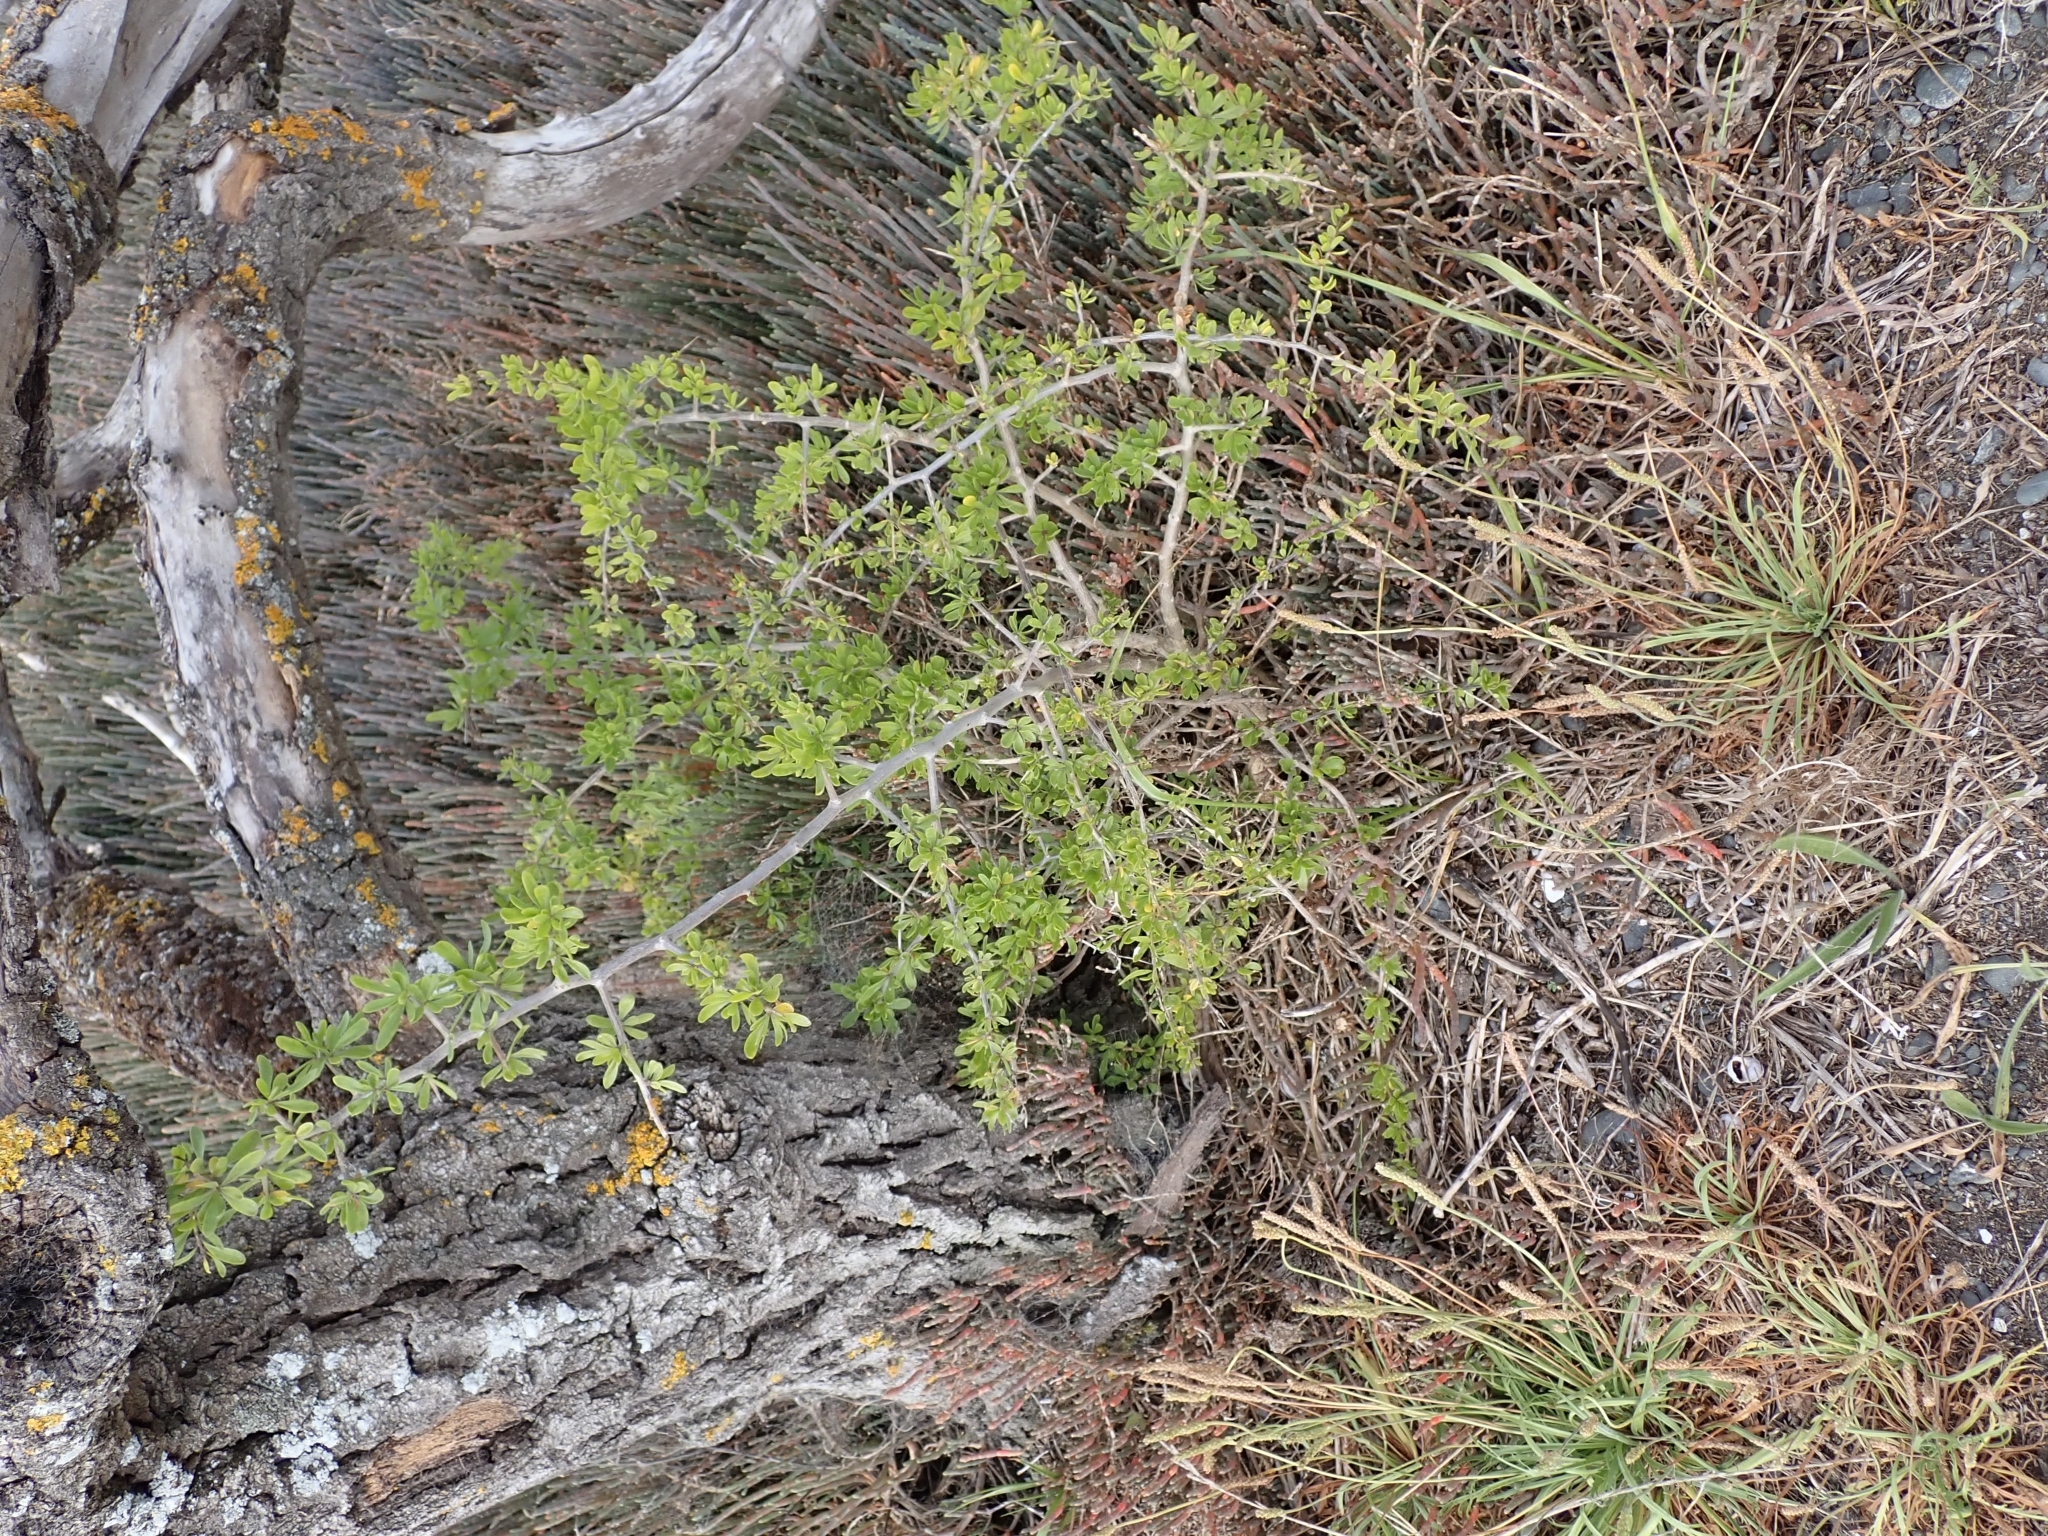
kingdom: Plantae
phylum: Tracheophyta
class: Magnoliopsida
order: Solanales
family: Solanaceae
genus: Lycium
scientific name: Lycium ferocissimum
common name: African boxthorn
